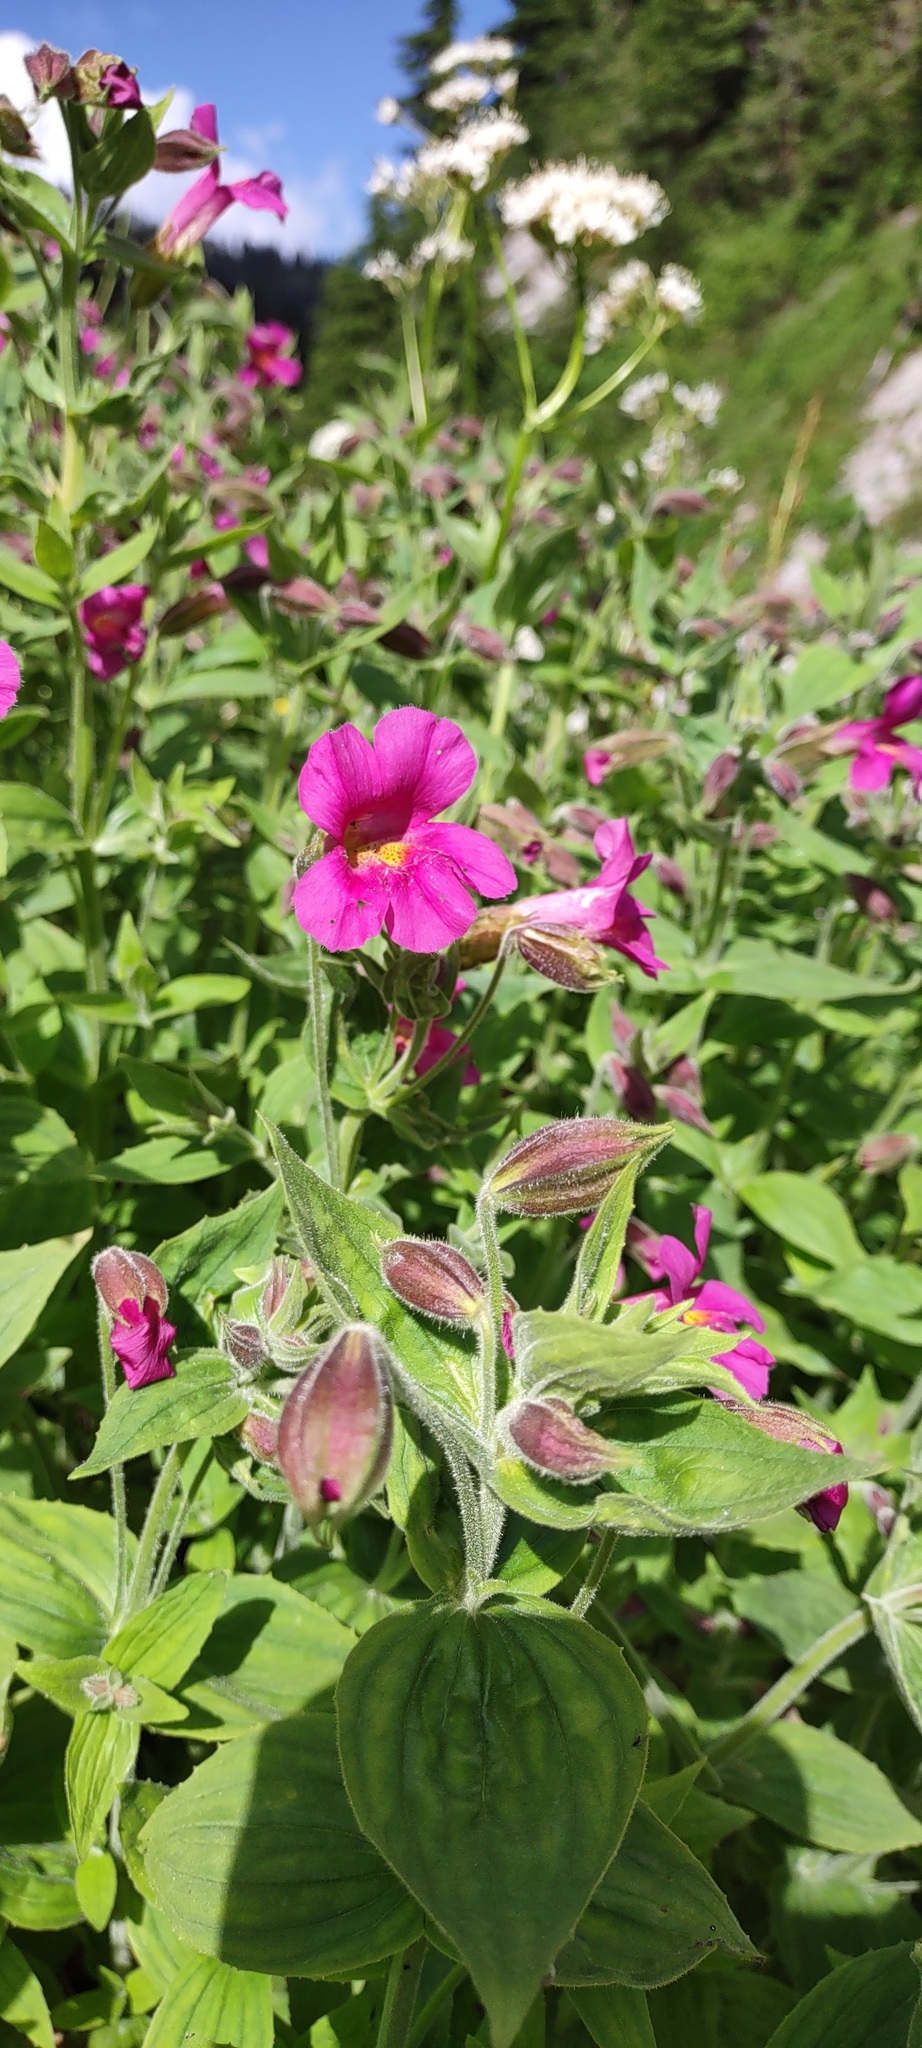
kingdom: Plantae
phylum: Tracheophyta
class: Magnoliopsida
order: Lamiales
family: Phrymaceae
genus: Erythranthe
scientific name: Erythranthe lewisii
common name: Lewis's monkey-flower
